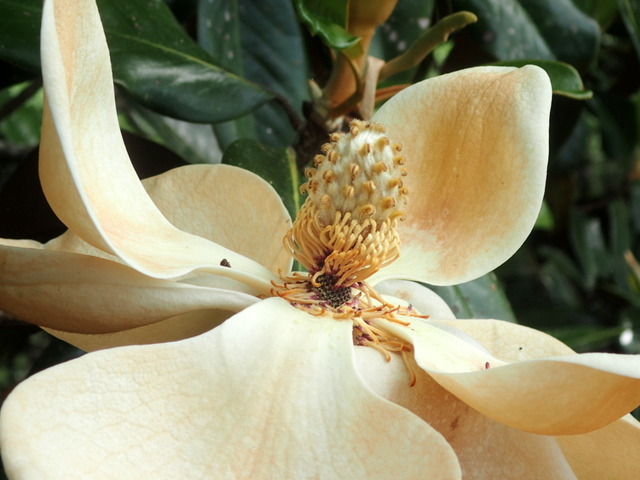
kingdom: Plantae
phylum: Tracheophyta
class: Magnoliopsida
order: Magnoliales
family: Magnoliaceae
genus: Magnolia
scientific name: Magnolia grandiflora
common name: Southern magnolia
